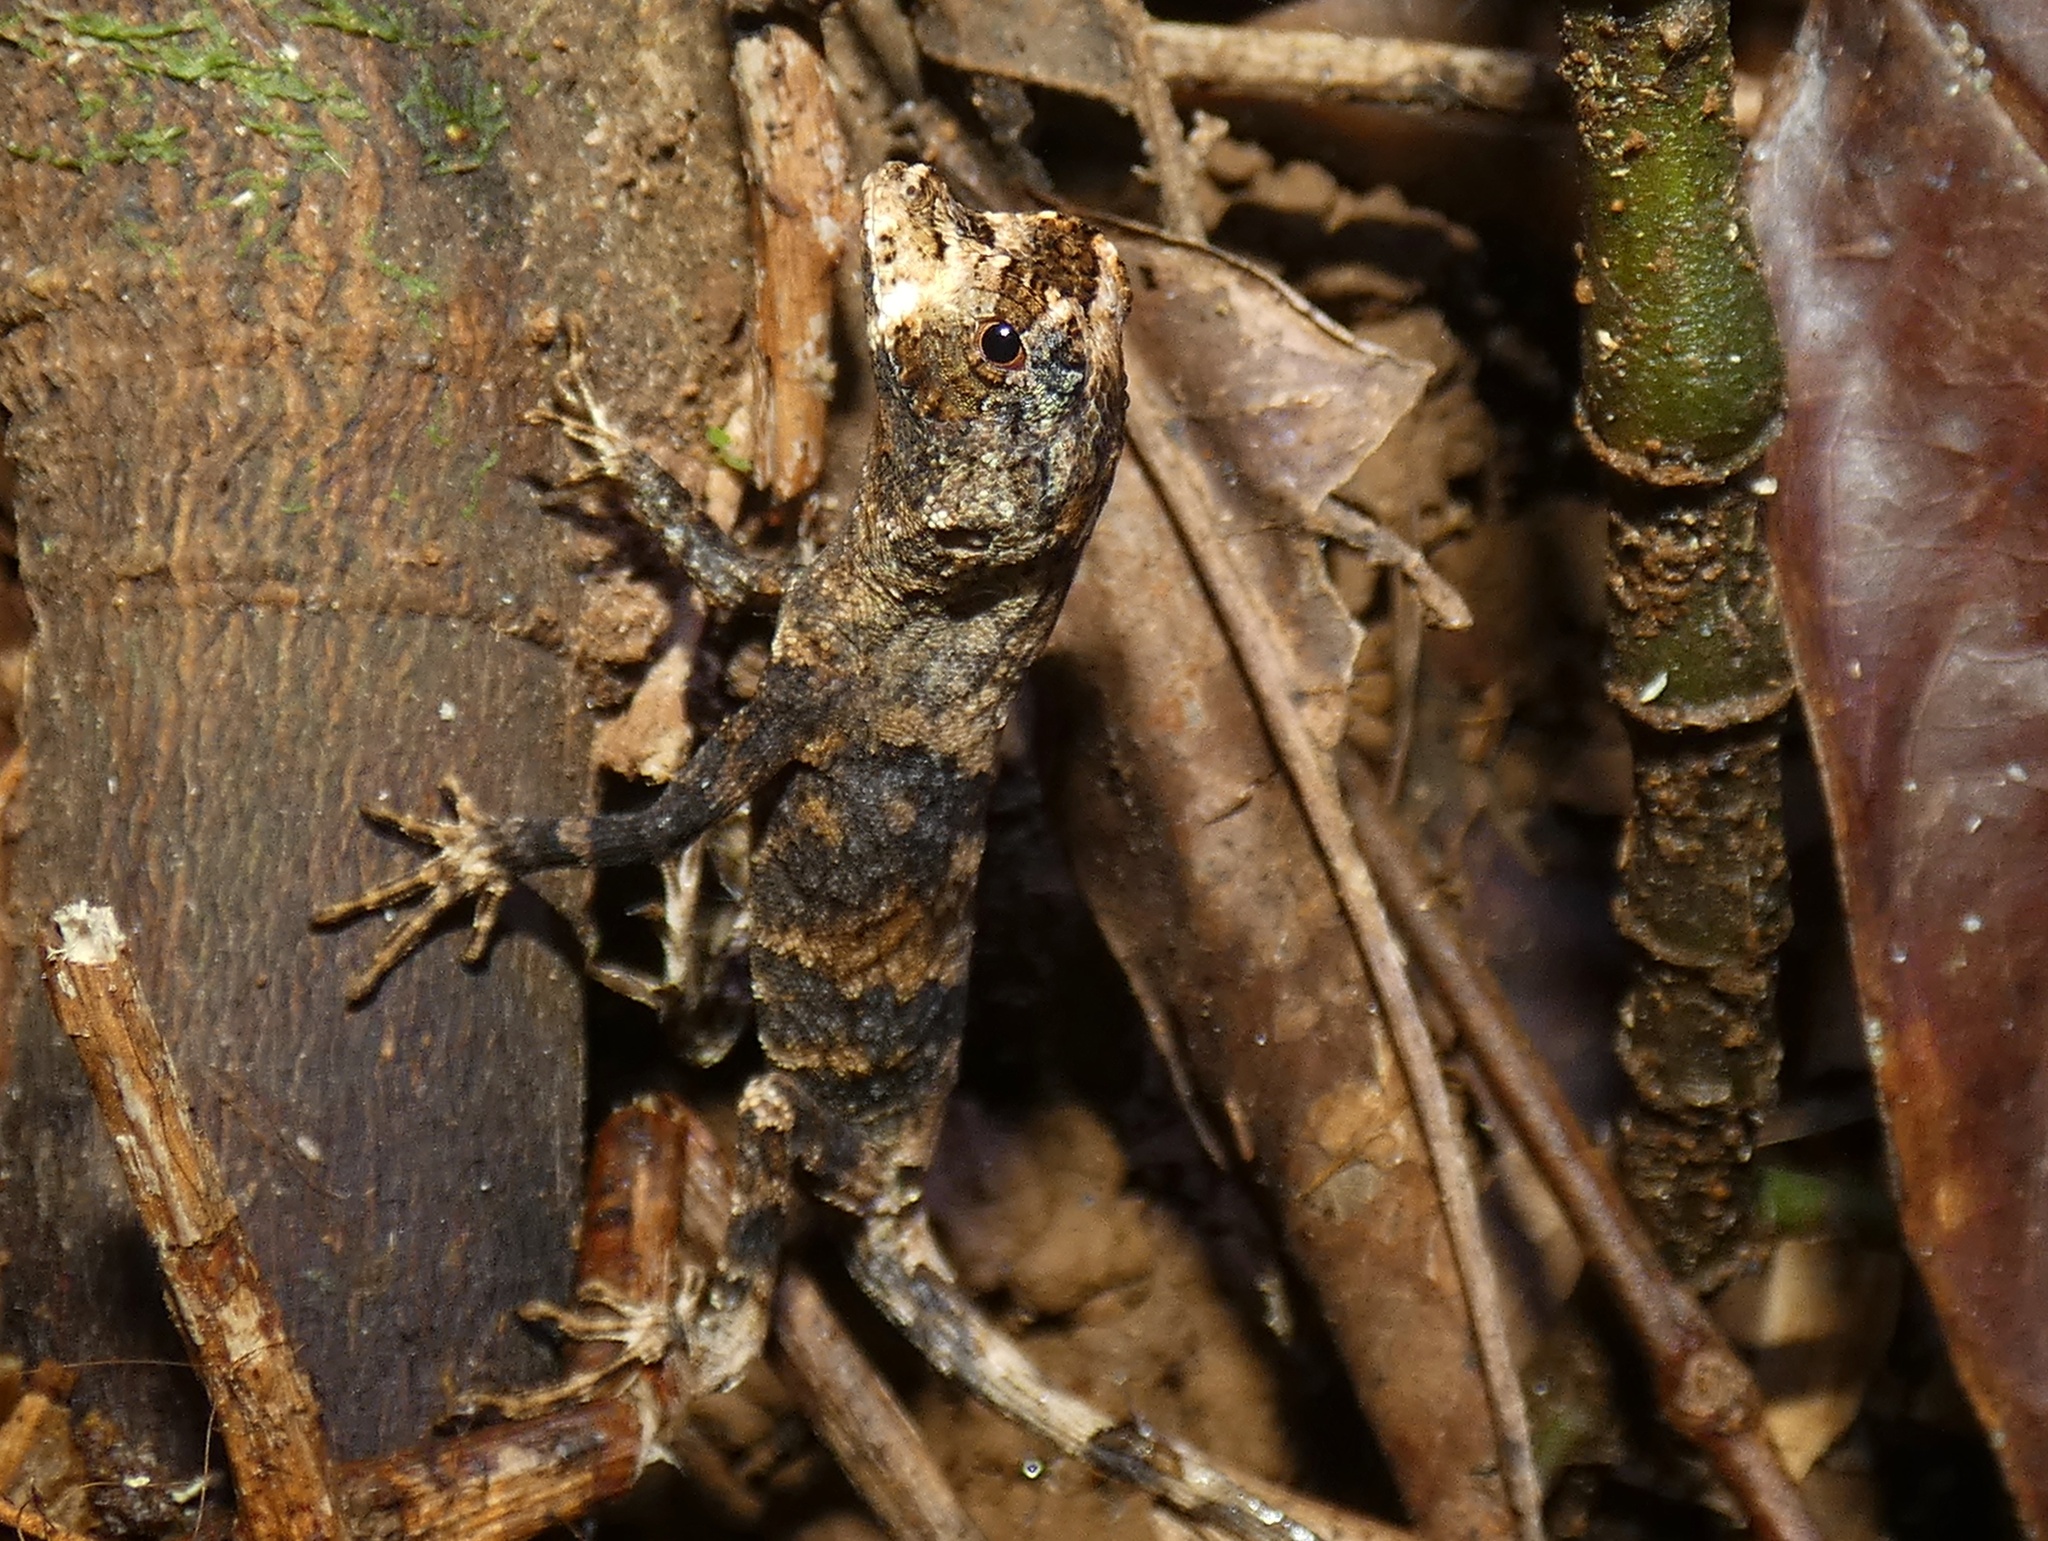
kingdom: Animalia
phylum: Chordata
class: Squamata
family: Dactyloidae
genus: Anolis
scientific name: Anolis capito
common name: Bighead anole
